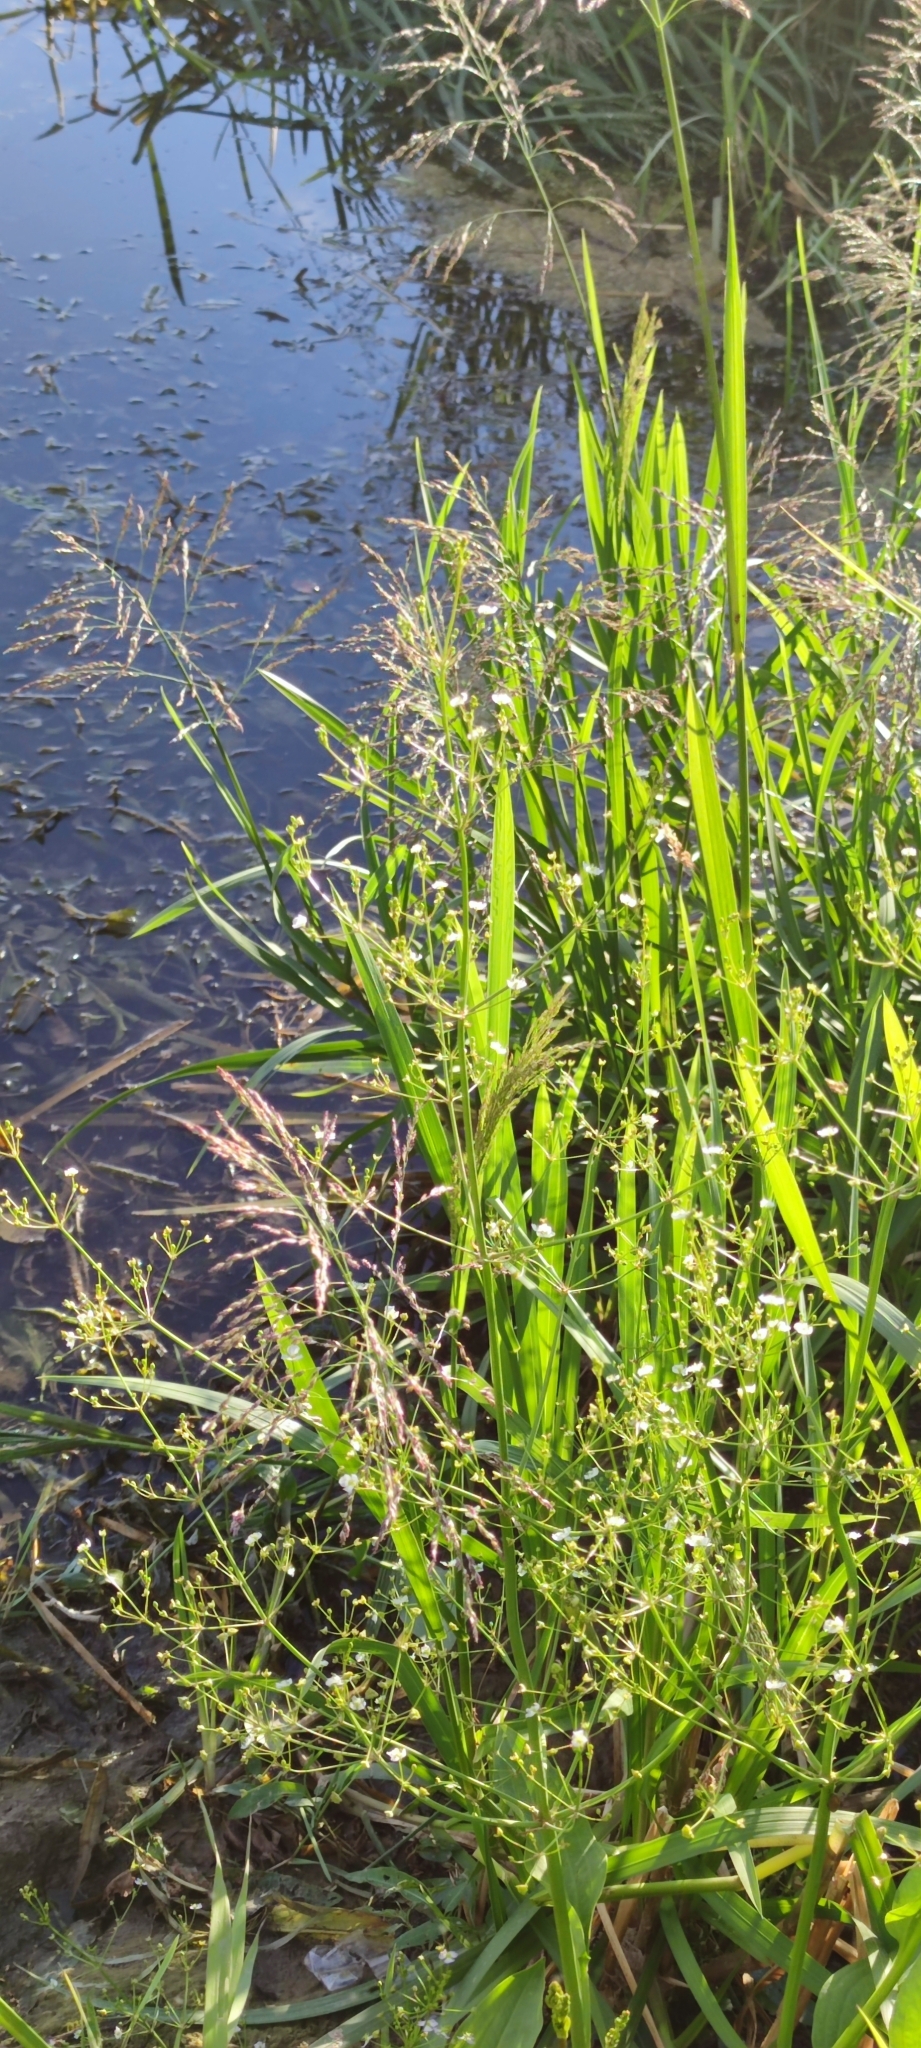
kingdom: Plantae
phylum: Tracheophyta
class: Liliopsida
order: Alismatales
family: Alismataceae
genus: Alisma
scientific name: Alisma plantago-aquatica
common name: Water-plantain
